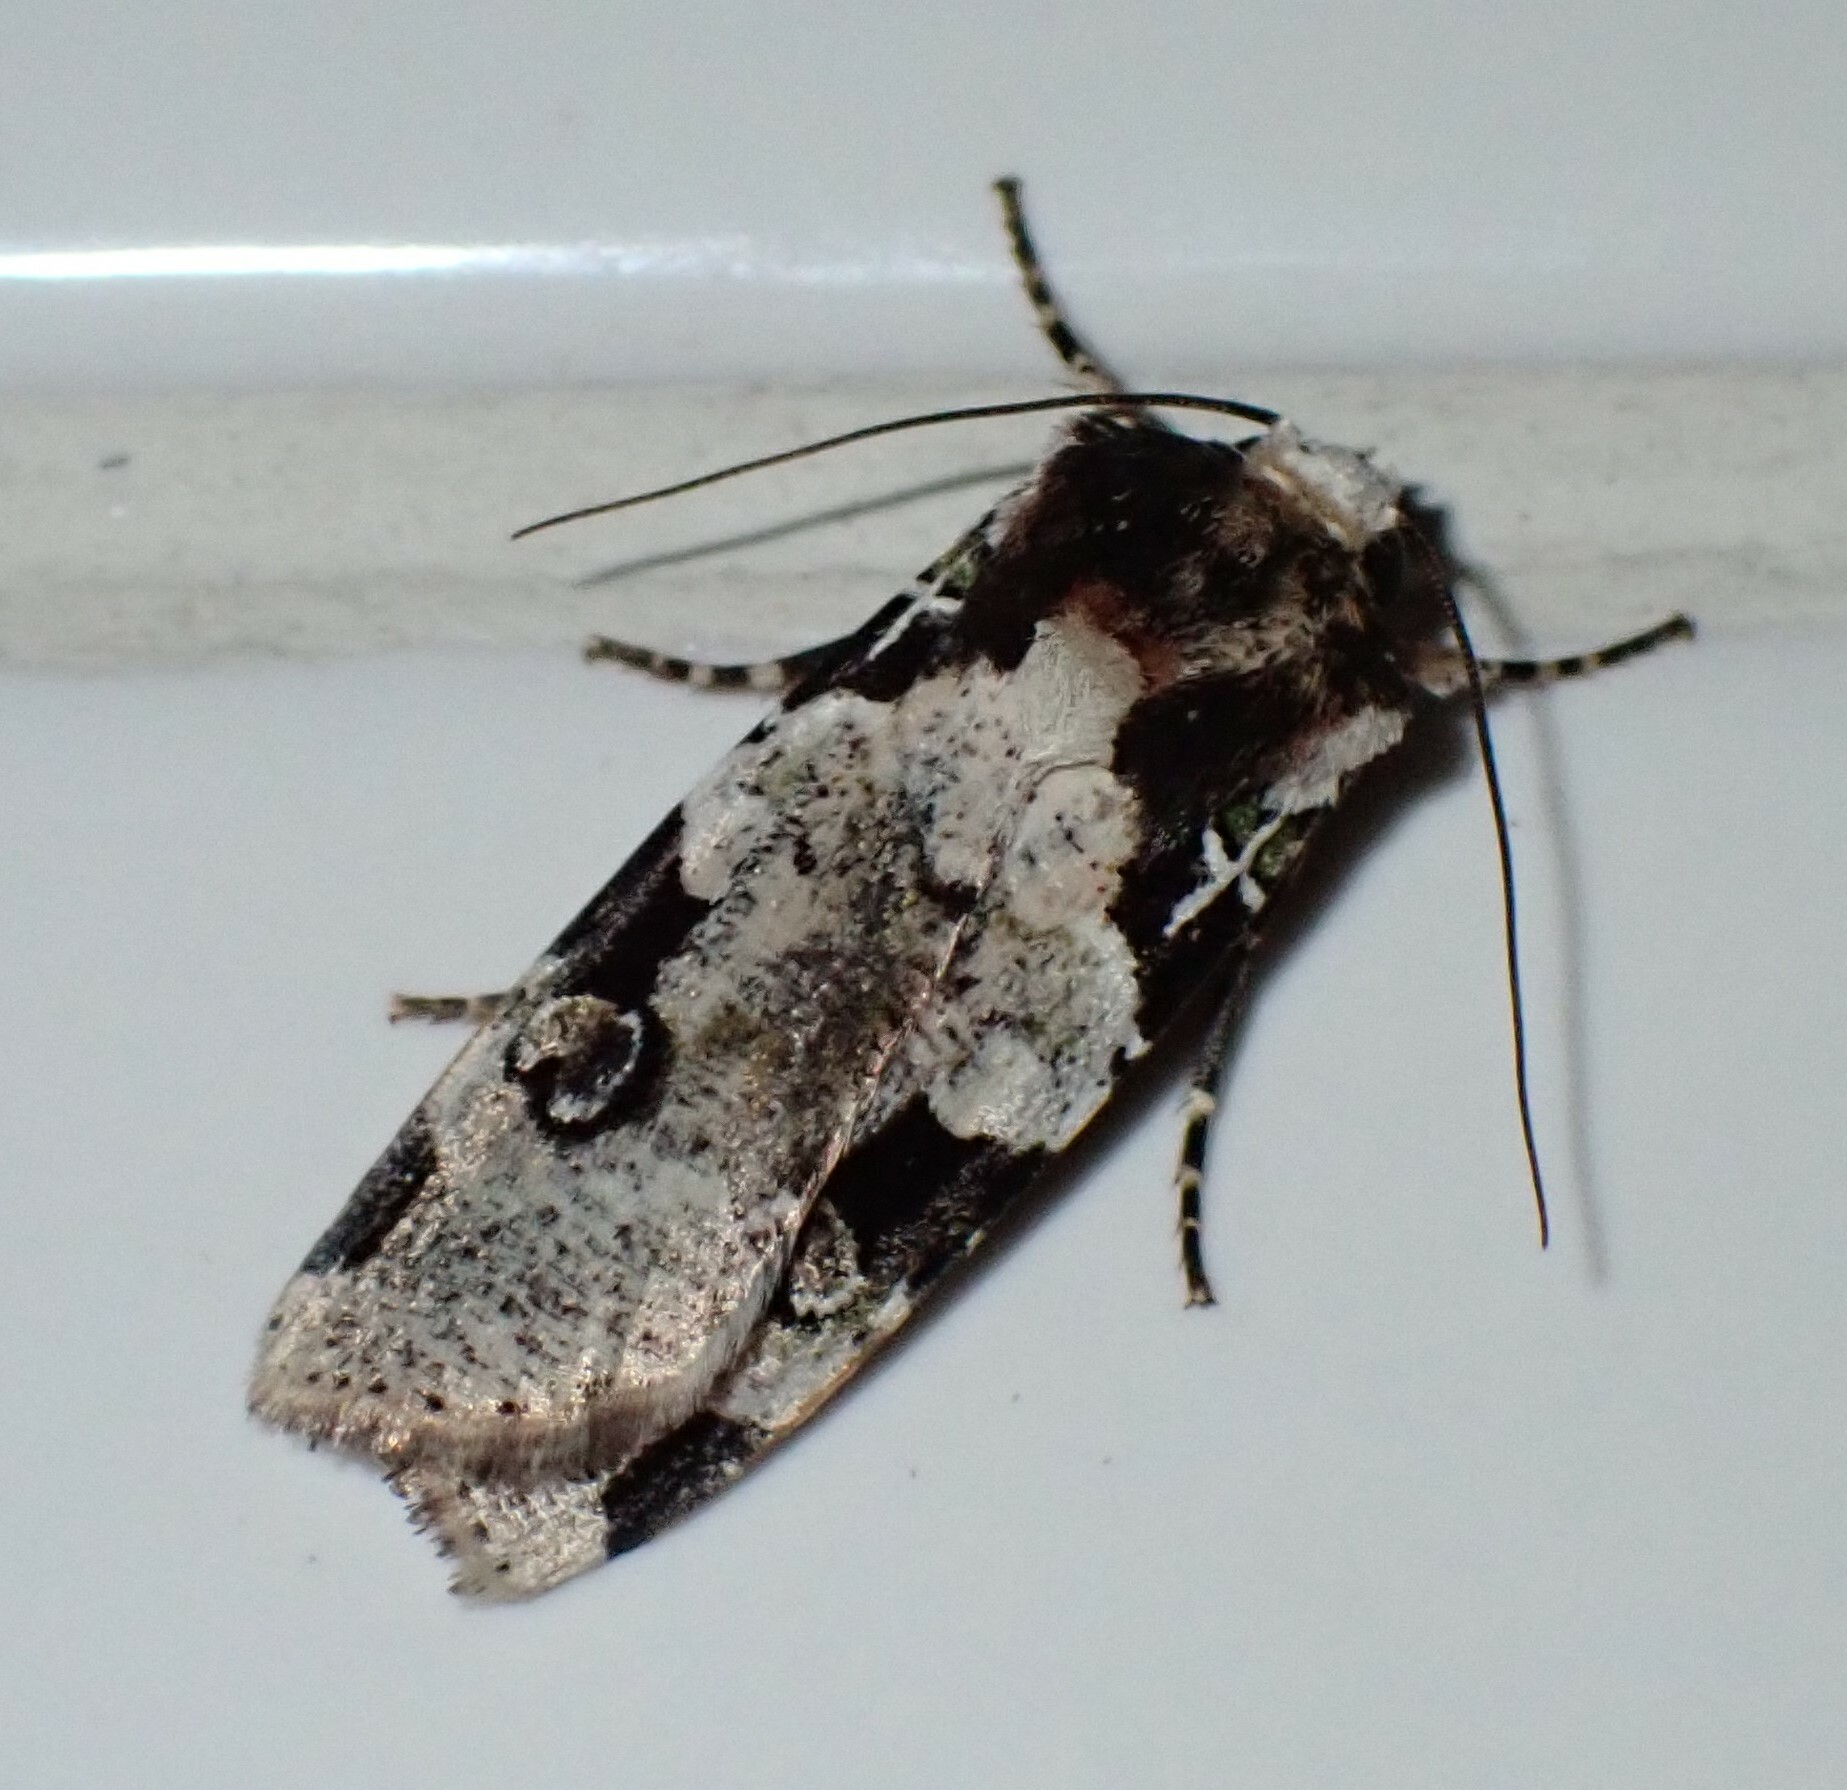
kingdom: Animalia
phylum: Arthropoda
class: Insecta
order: Lepidoptera
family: Noctuidae
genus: Mentaxya
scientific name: Mentaxya albifrons
